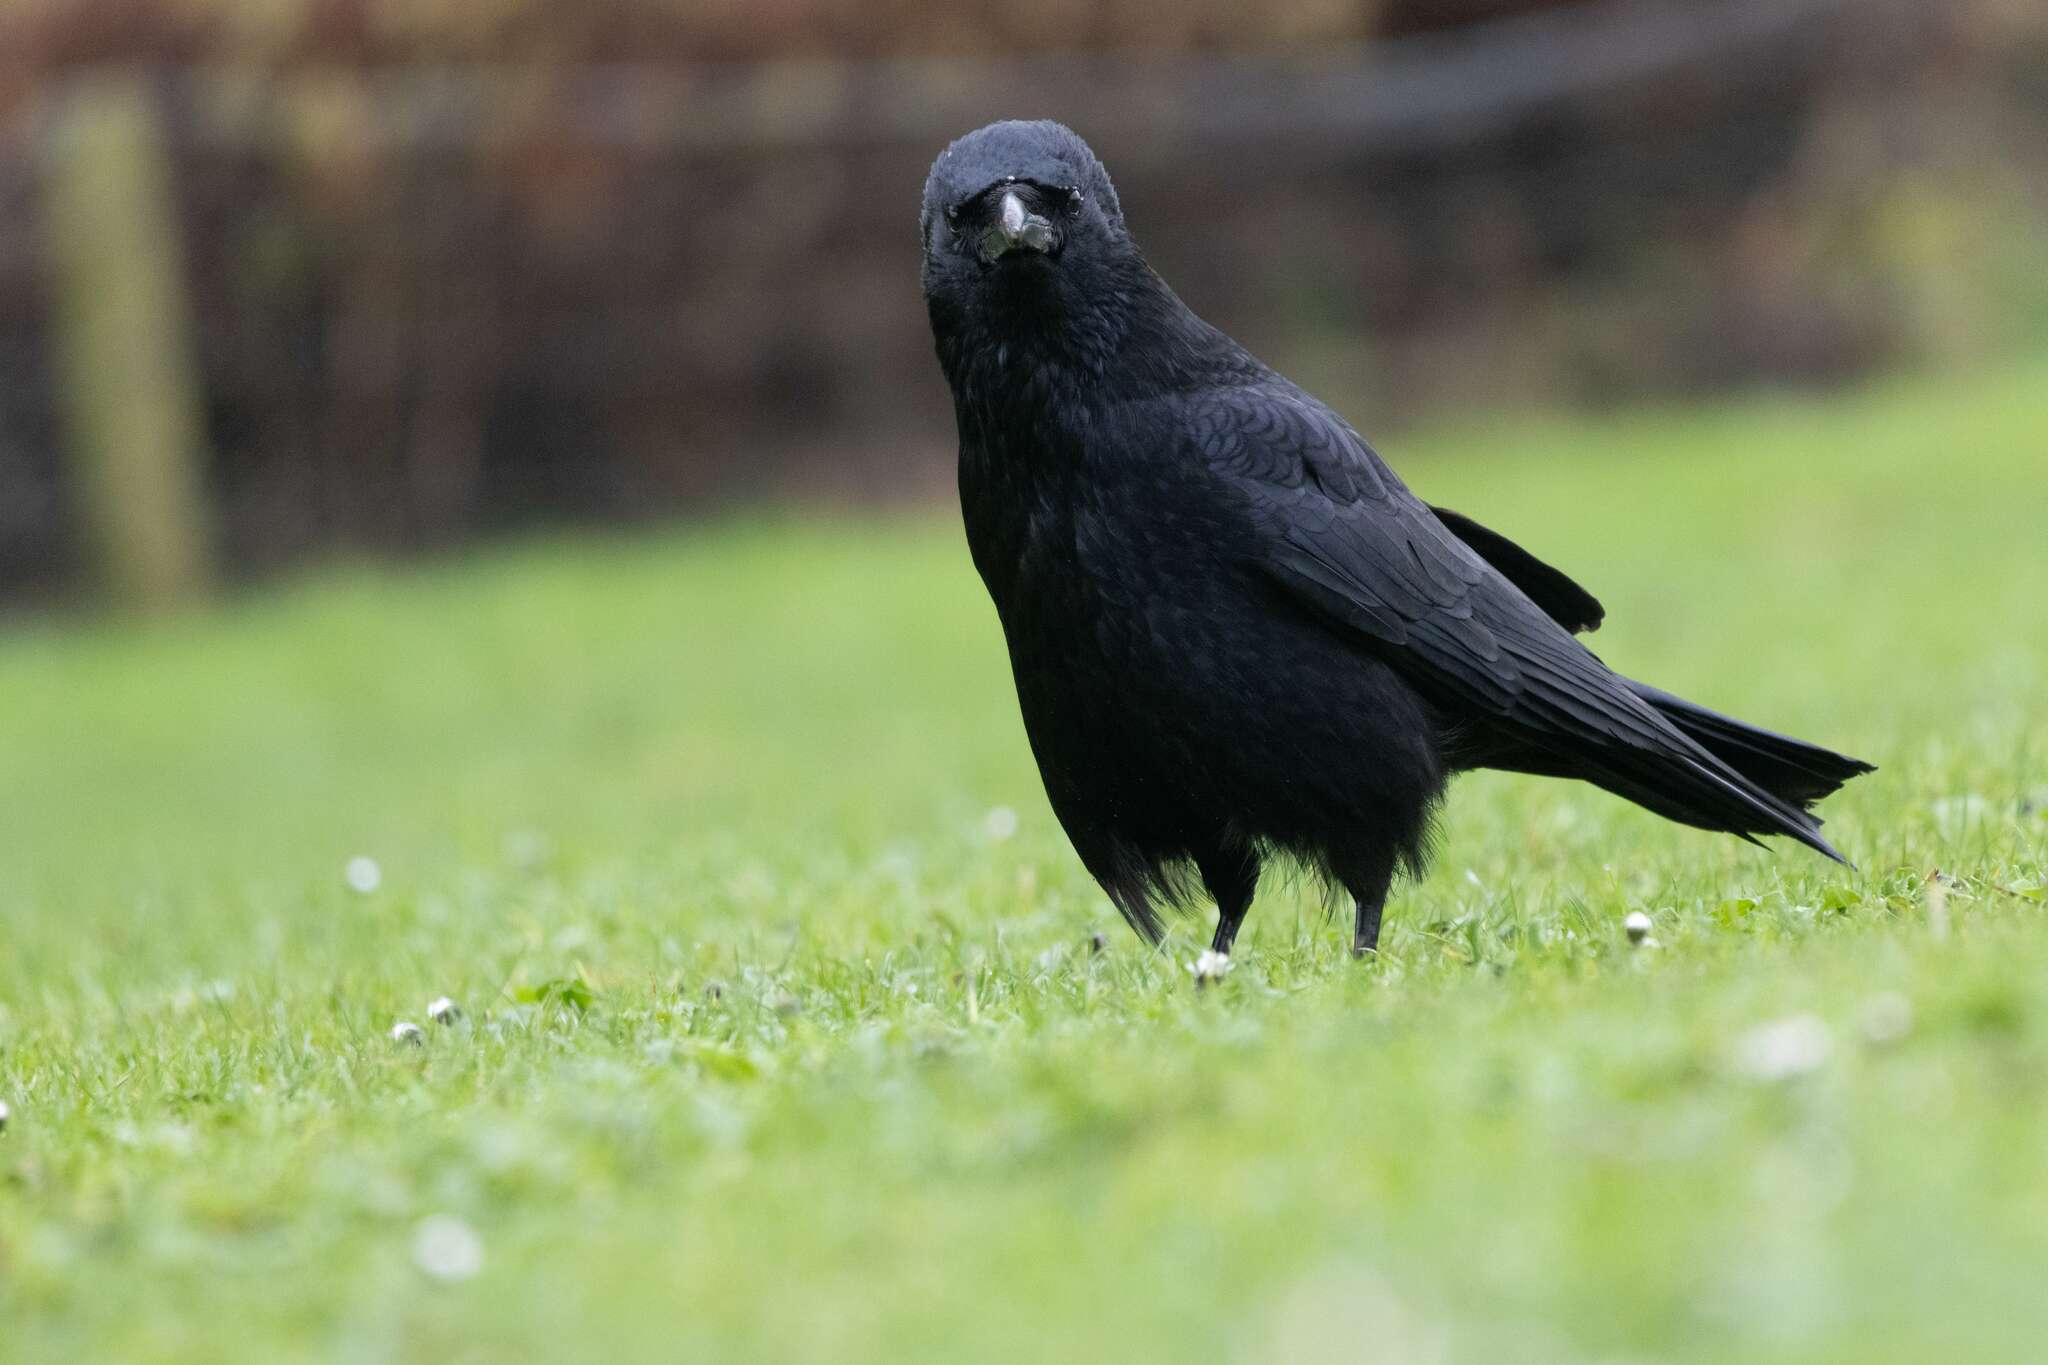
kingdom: Animalia
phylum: Chordata
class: Aves
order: Passeriformes
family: Corvidae
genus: Corvus
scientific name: Corvus corone
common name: Carrion crow
